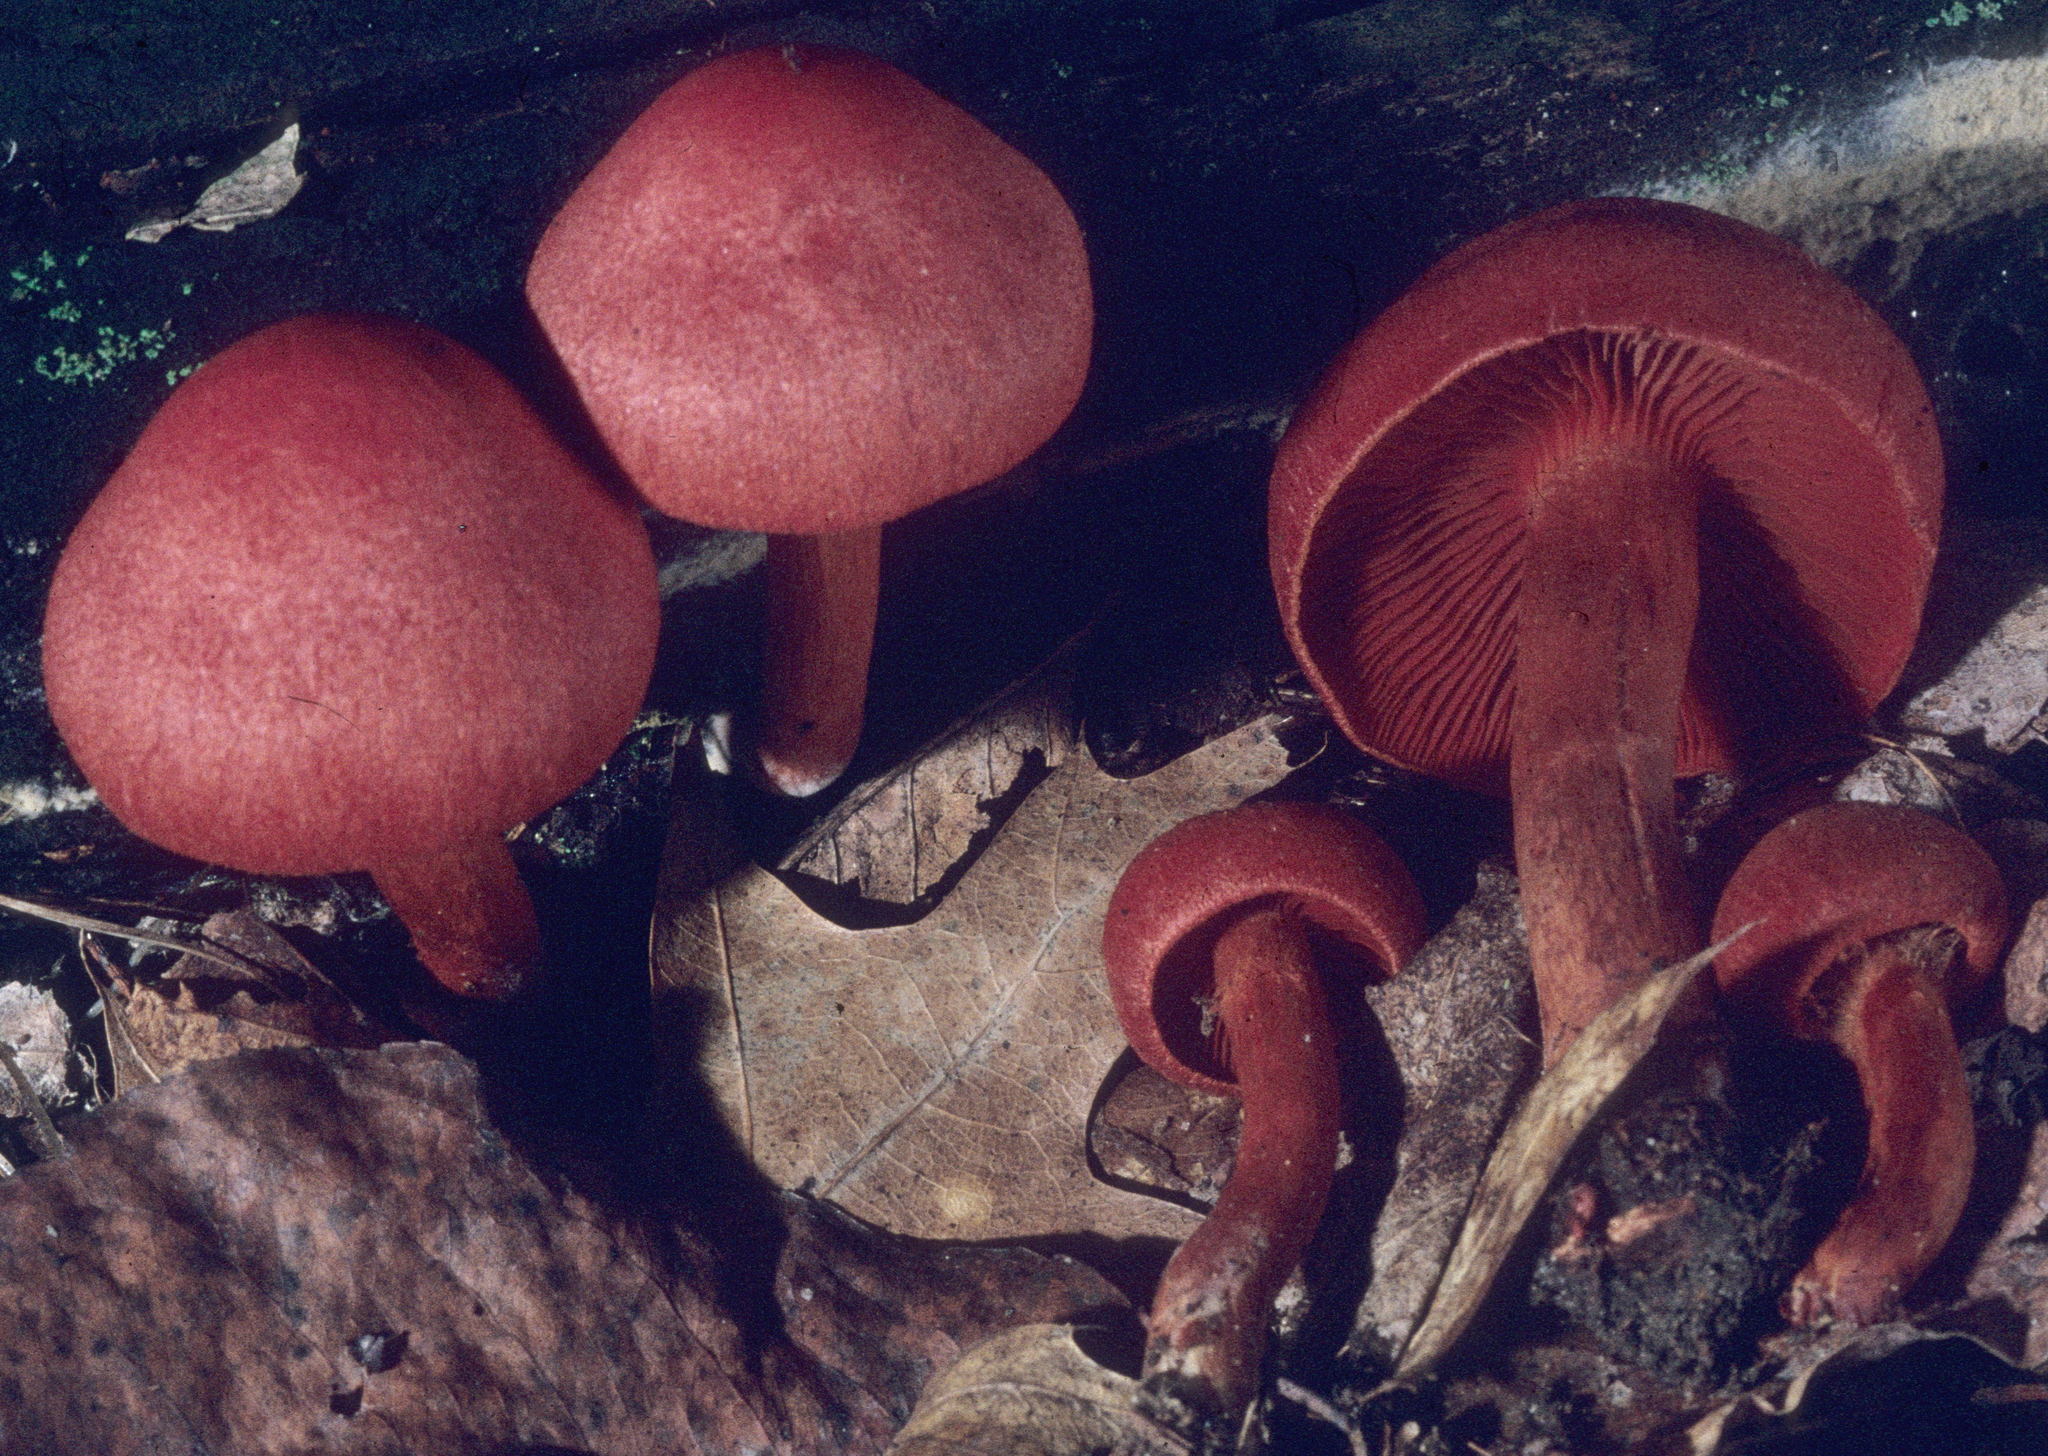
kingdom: Fungi
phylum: Basidiomycota
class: Agaricomycetes
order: Agaricales
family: Cortinariaceae
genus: Cortinarius
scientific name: Cortinarius marylandensis
